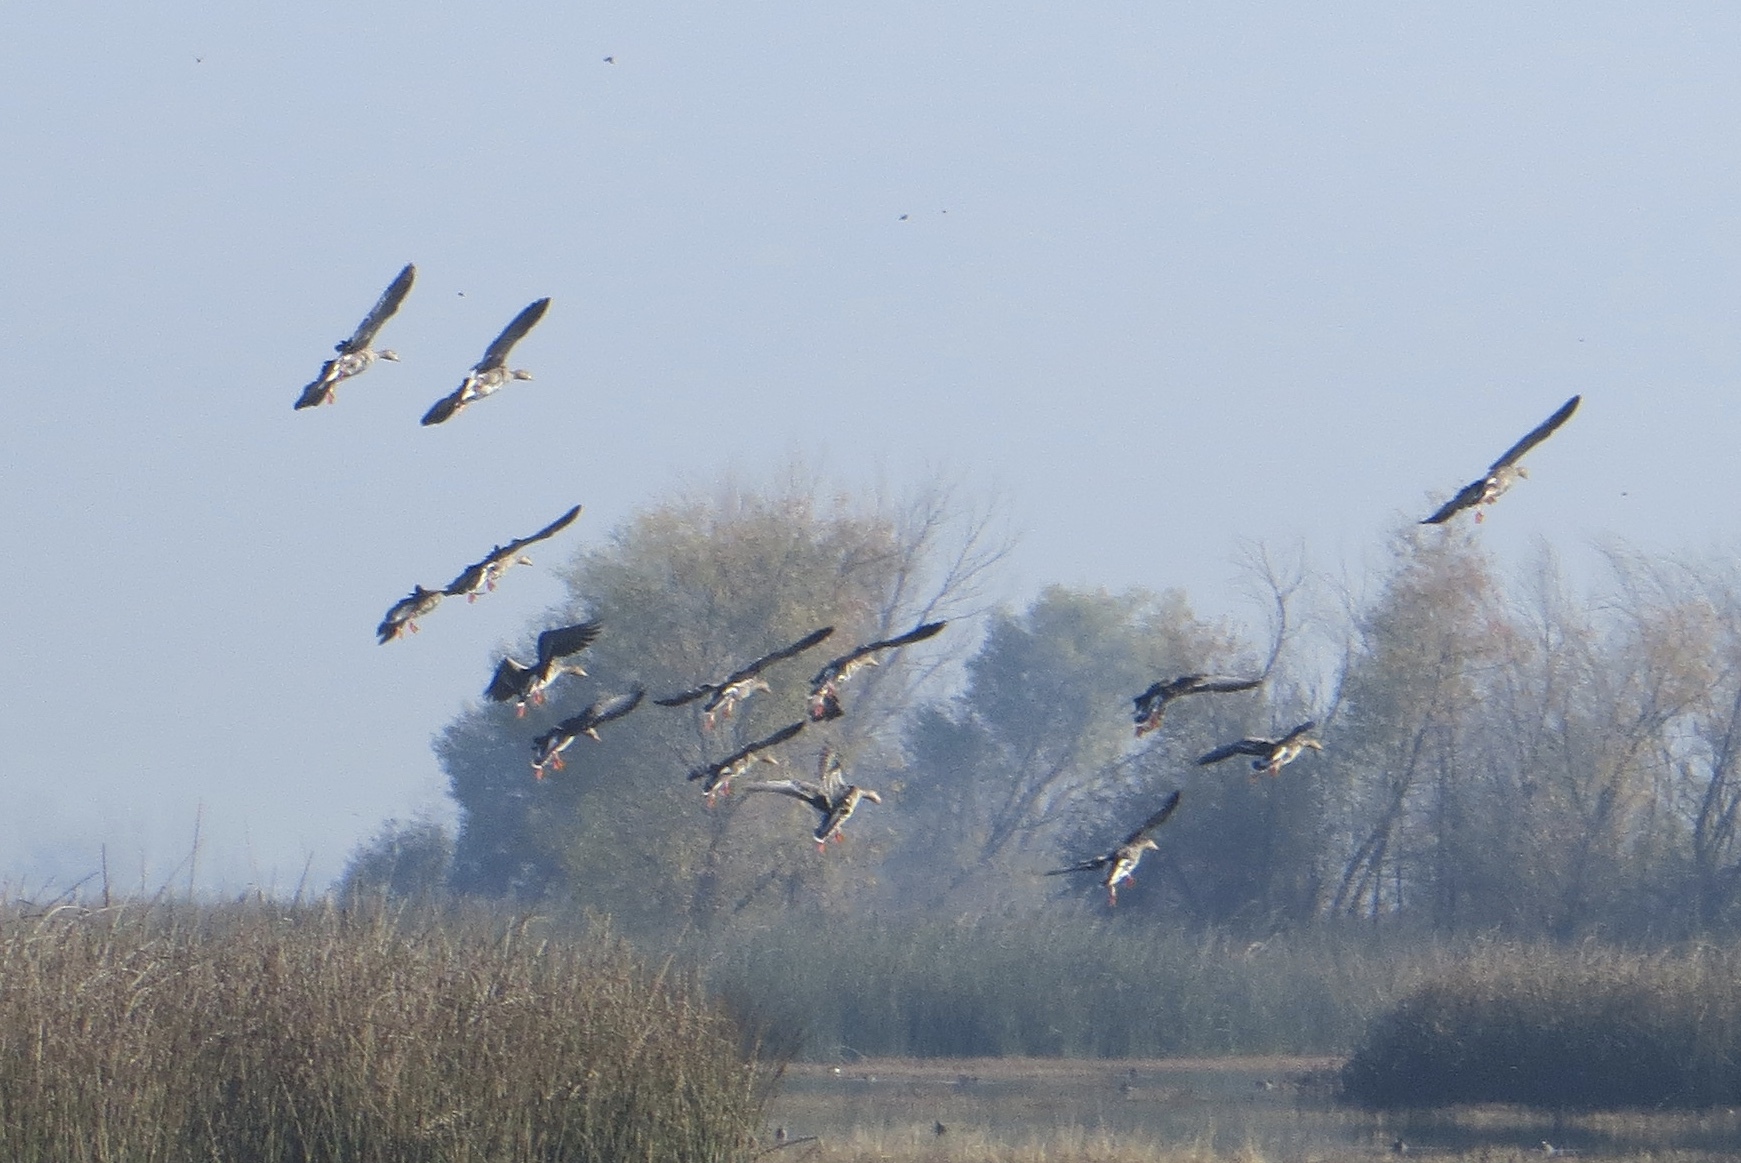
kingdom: Animalia
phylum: Chordata
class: Aves
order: Anseriformes
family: Anatidae
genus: Anser
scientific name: Anser albifrons
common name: Greater white-fronted goose
